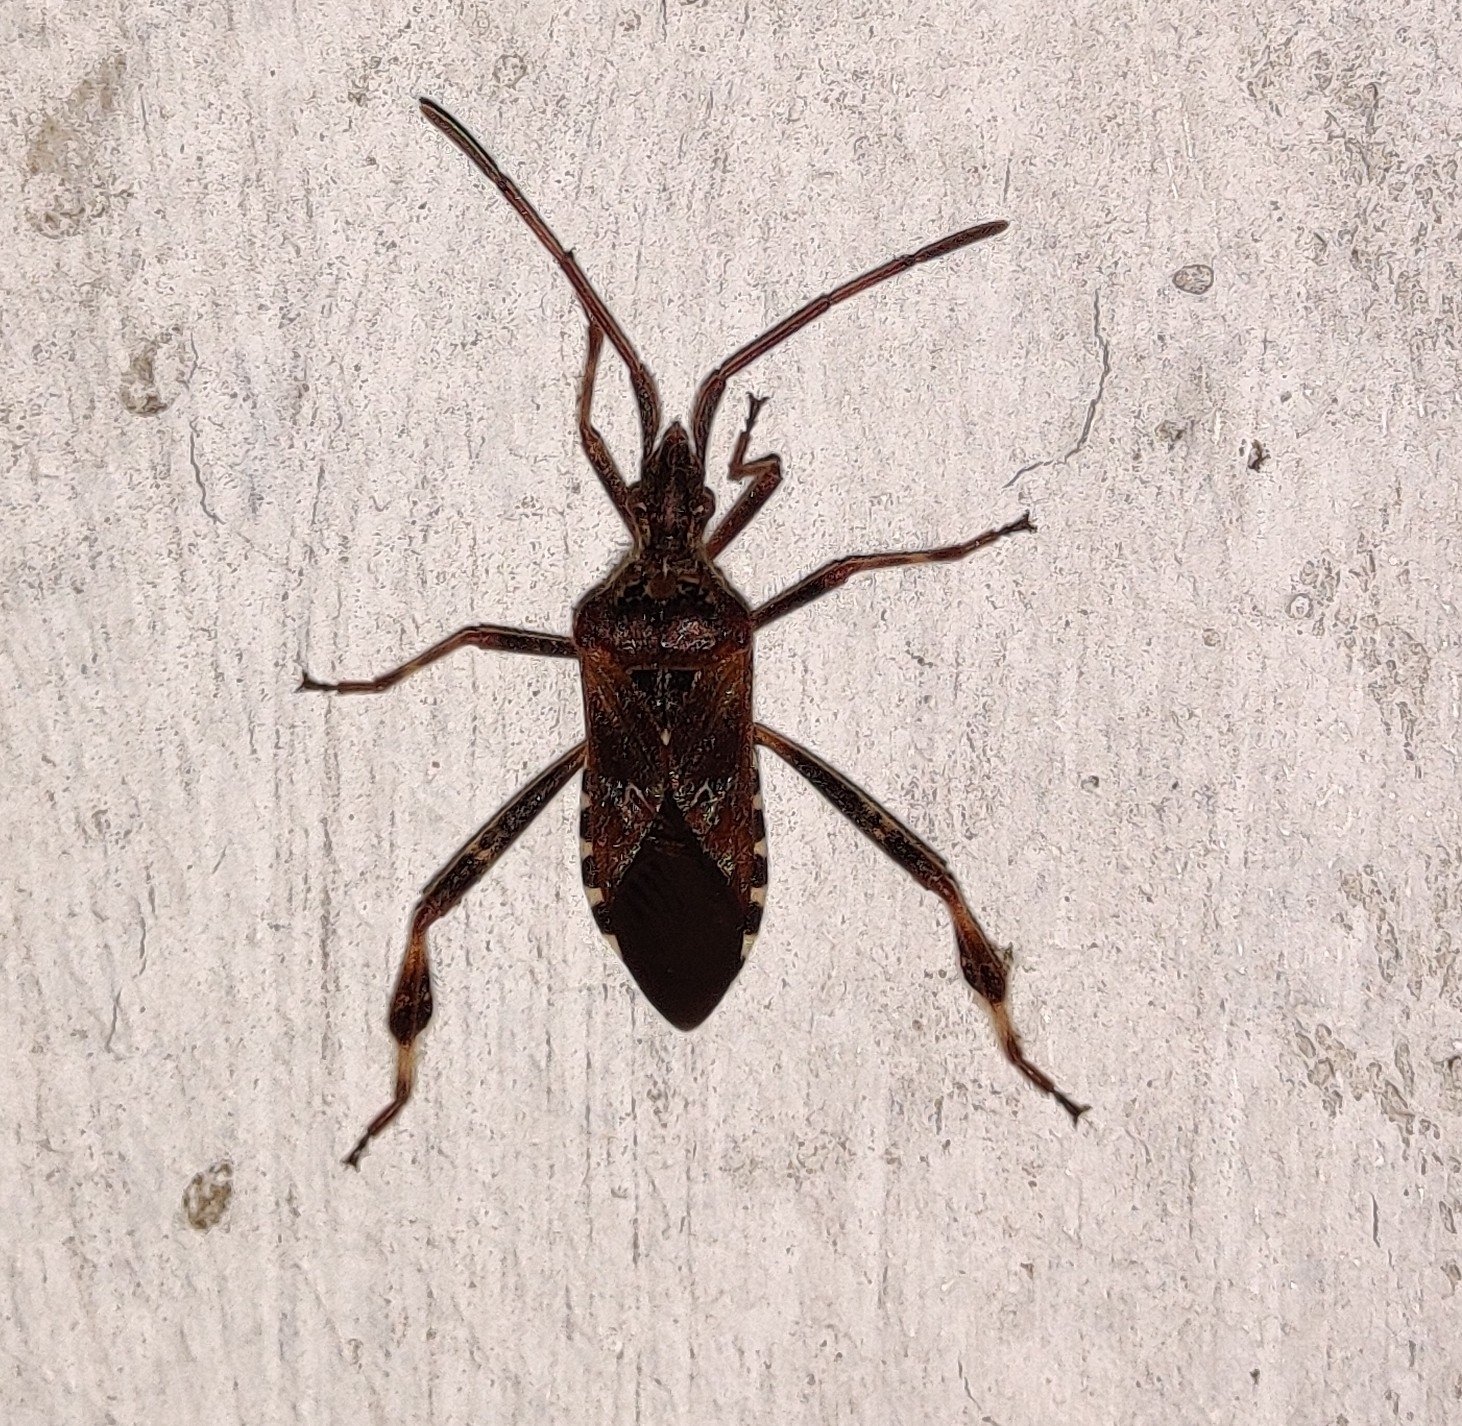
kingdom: Animalia
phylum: Arthropoda
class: Insecta
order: Hemiptera
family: Coreidae
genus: Leptoglossus
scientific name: Leptoglossus occidentalis
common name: Western conifer-seed bug
